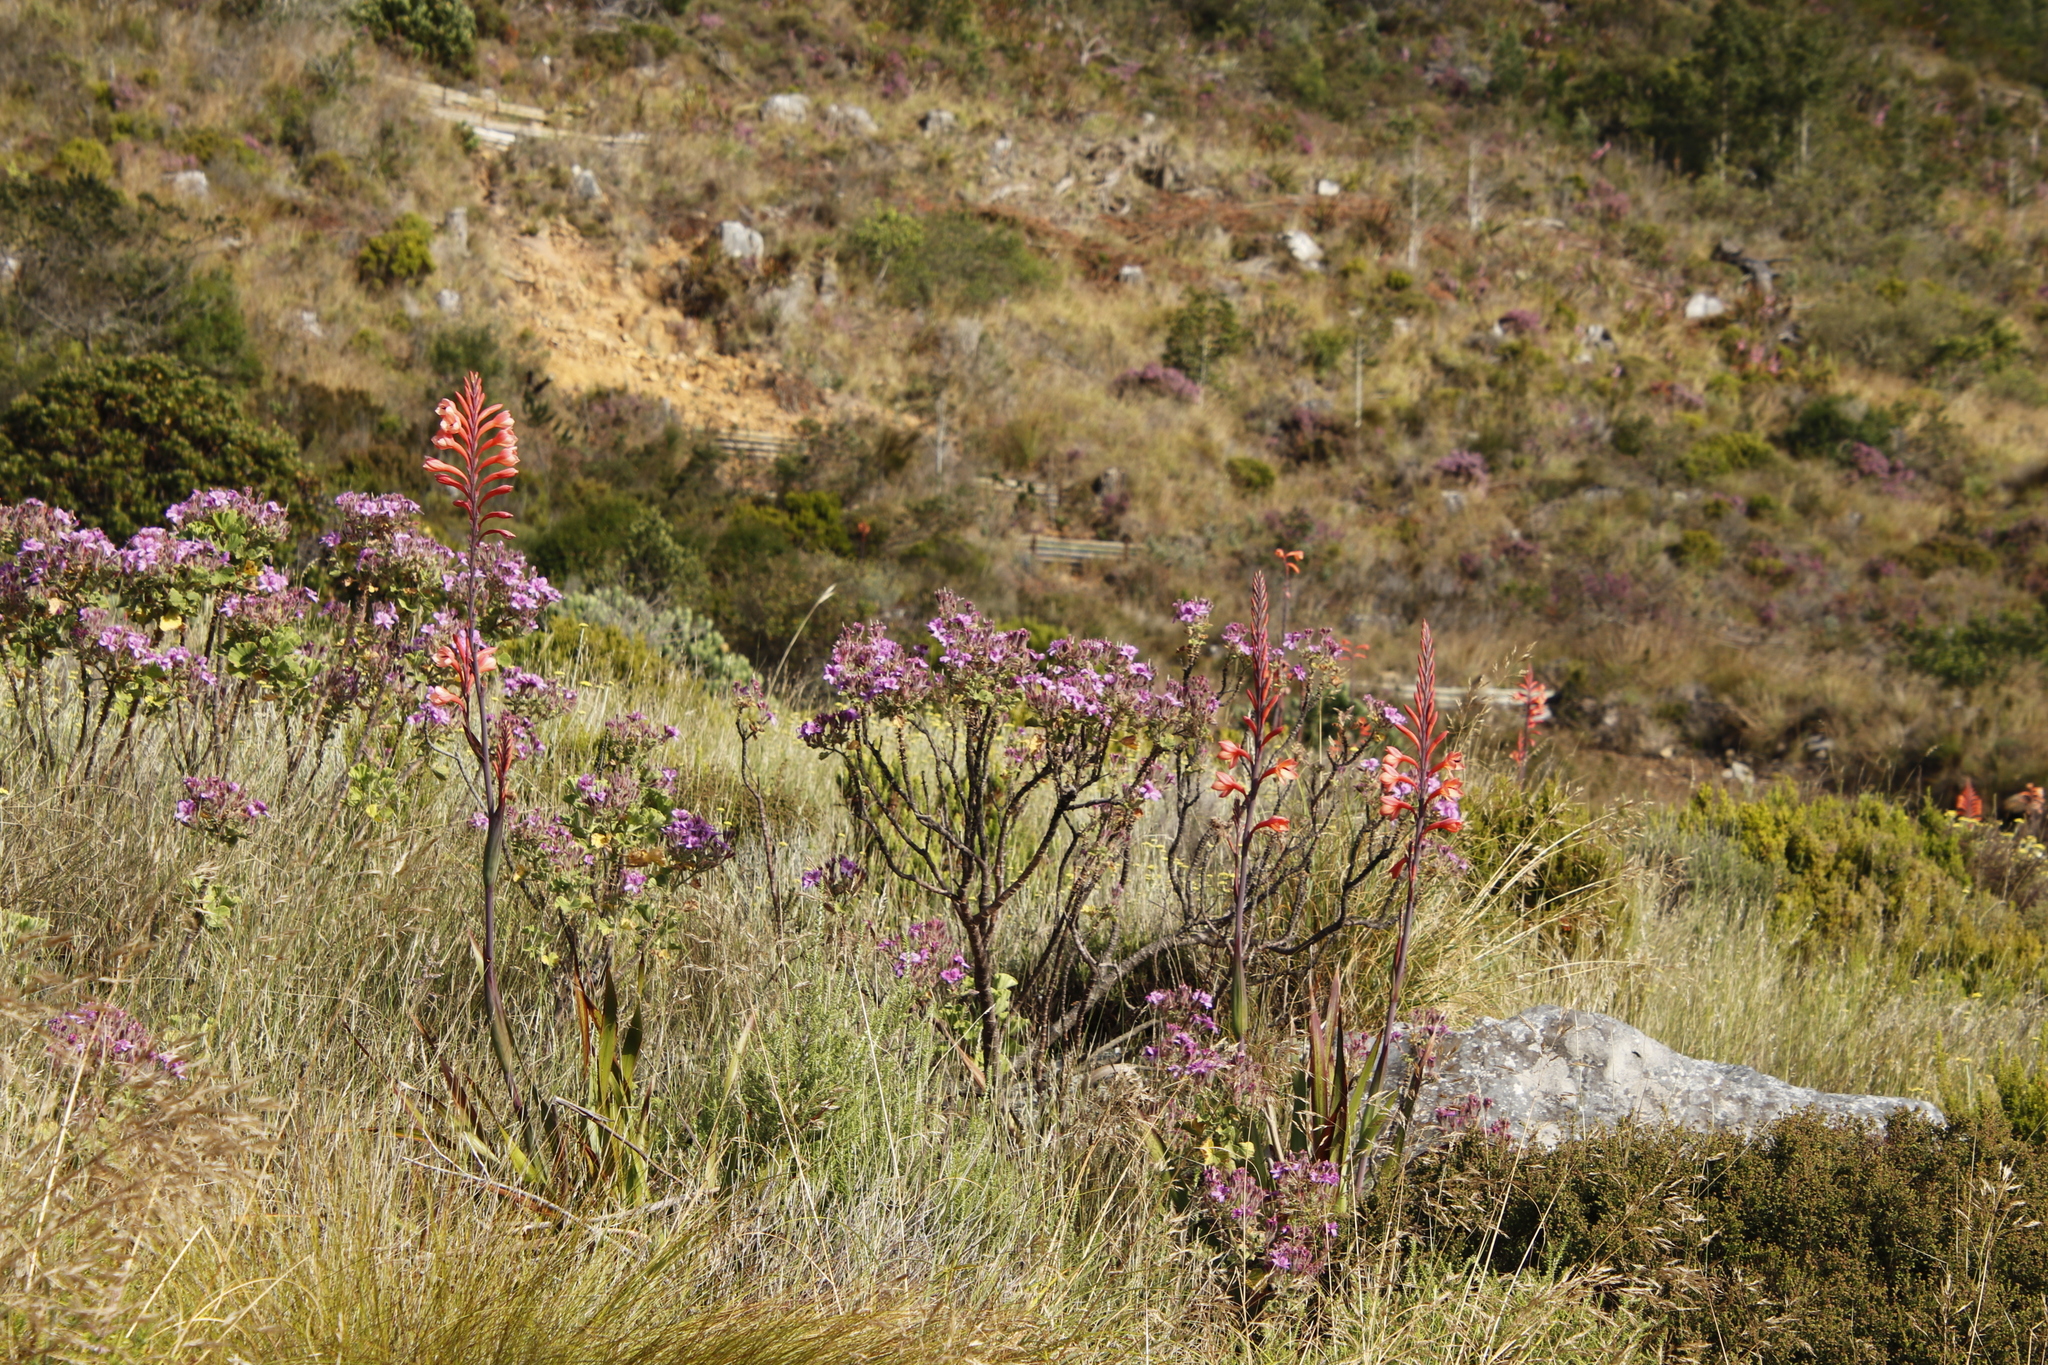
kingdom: Plantae
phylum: Tracheophyta
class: Magnoliopsida
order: Geraniales
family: Geraniaceae
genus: Pelargonium
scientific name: Pelargonium cucullatum
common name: Tree pelargonium
